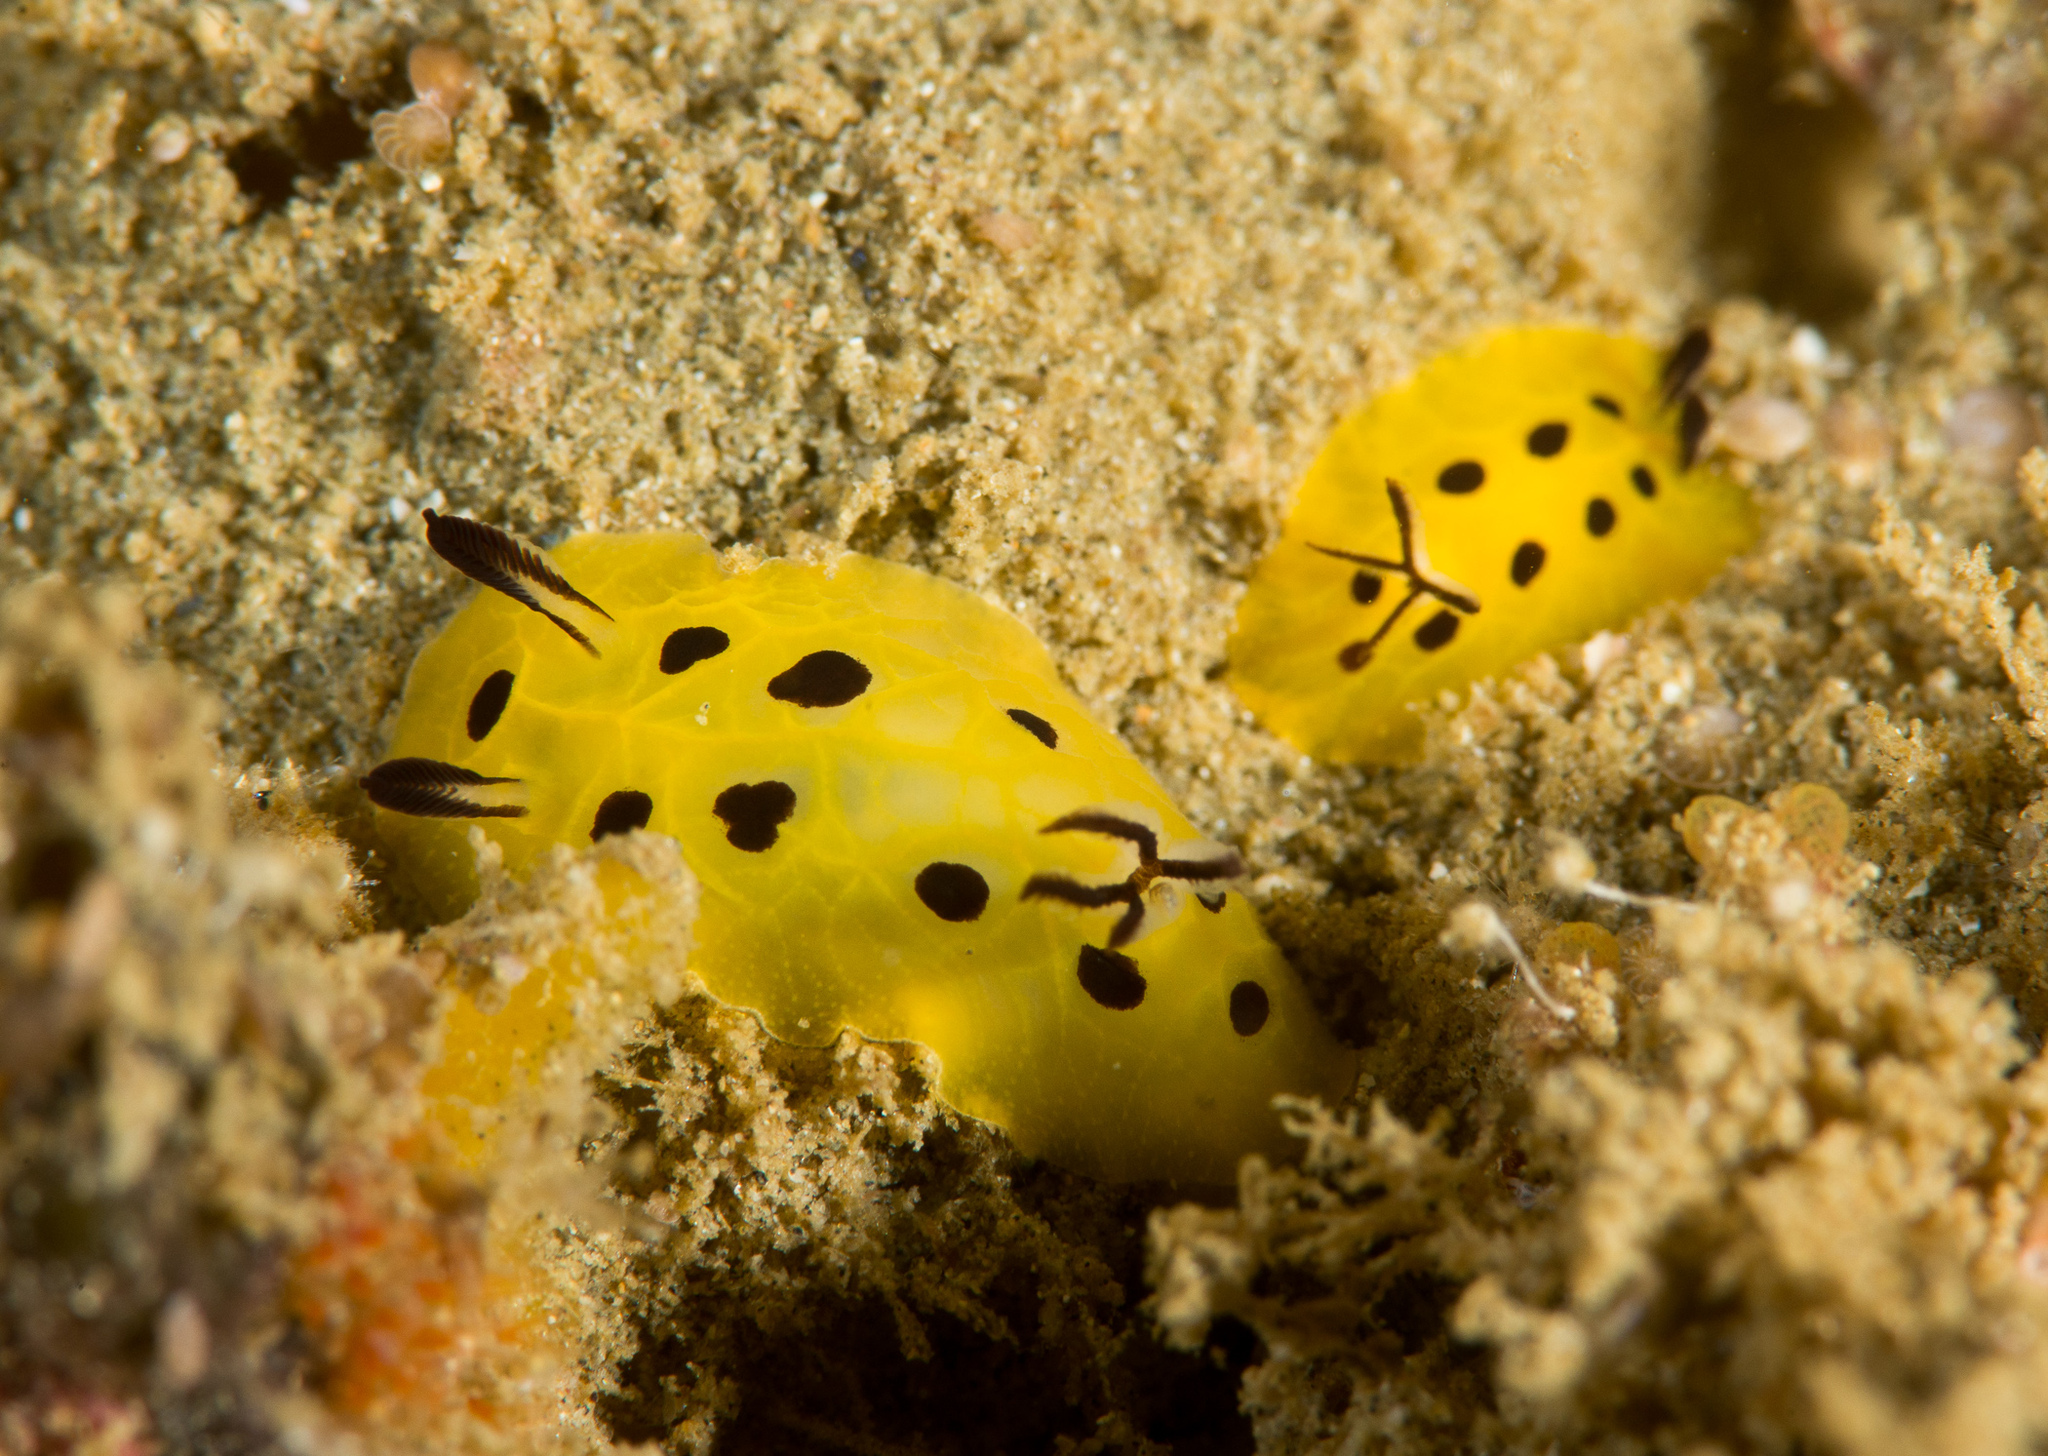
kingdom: Animalia
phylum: Mollusca
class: Gastropoda
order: Nudibranchia
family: Discodorididae
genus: Halgerda
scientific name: Halgerda biqiea
